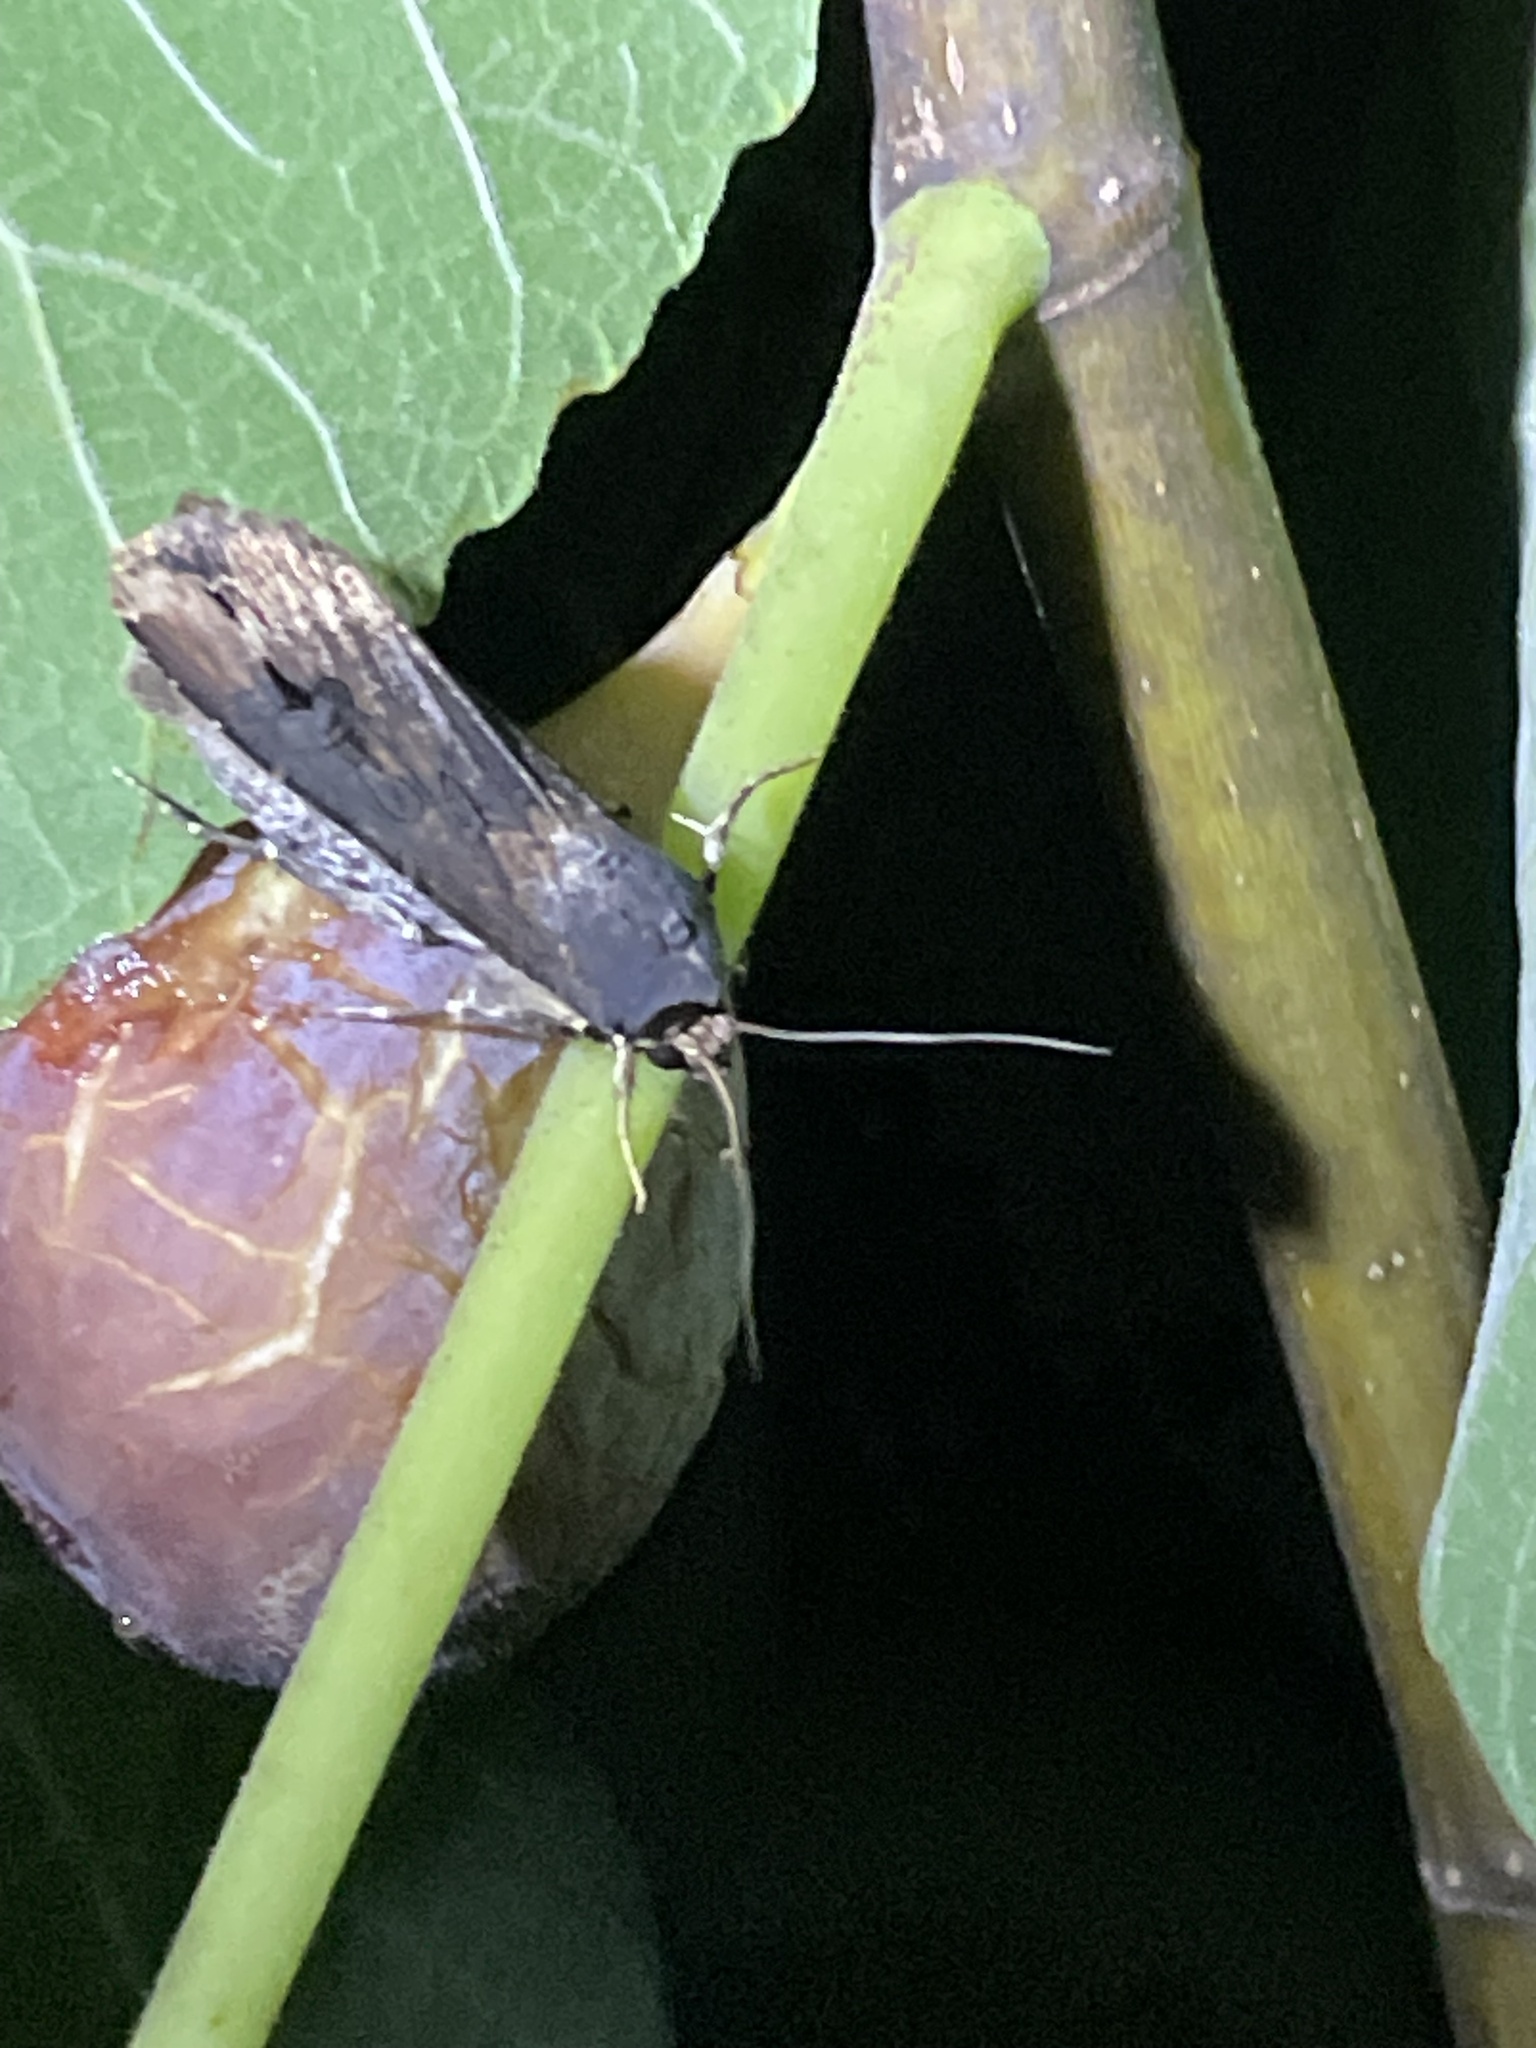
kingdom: Animalia
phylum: Arthropoda
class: Insecta
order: Lepidoptera
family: Noctuidae
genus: Agrotis
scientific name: Agrotis ipsilon
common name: Dark sword-grass
